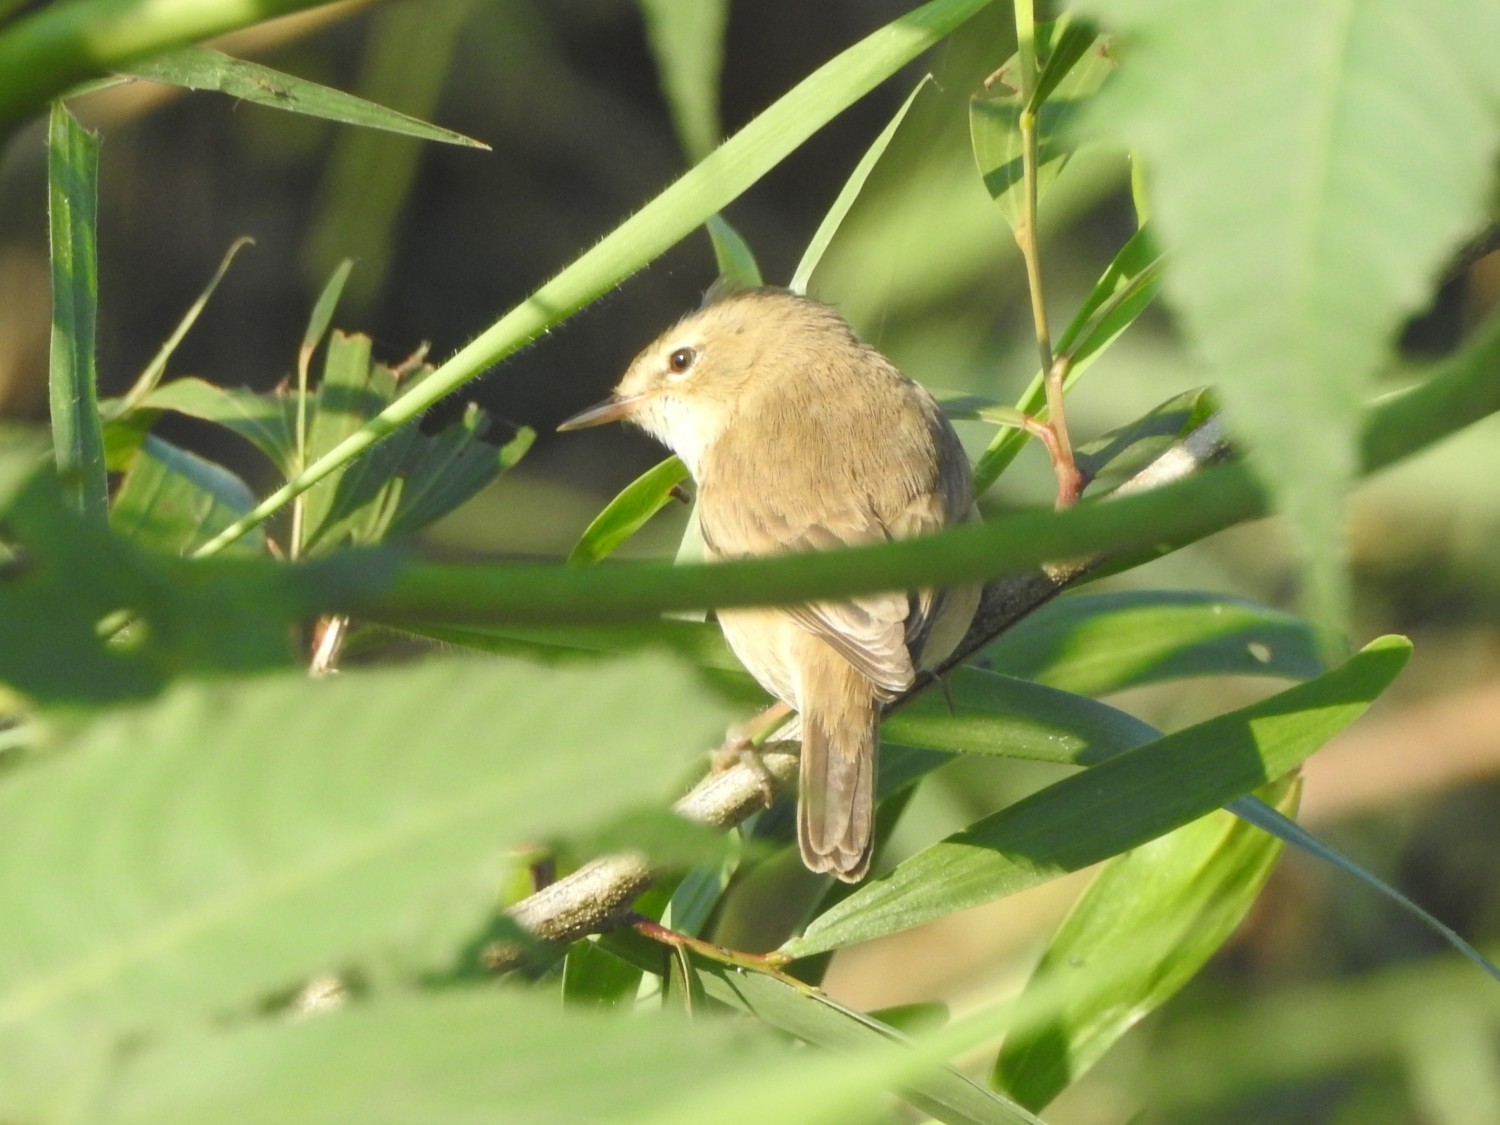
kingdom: Animalia
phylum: Chordata
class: Aves
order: Passeriformes
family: Acrocephalidae
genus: Iduna
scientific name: Iduna caligata
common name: Booted warbler
